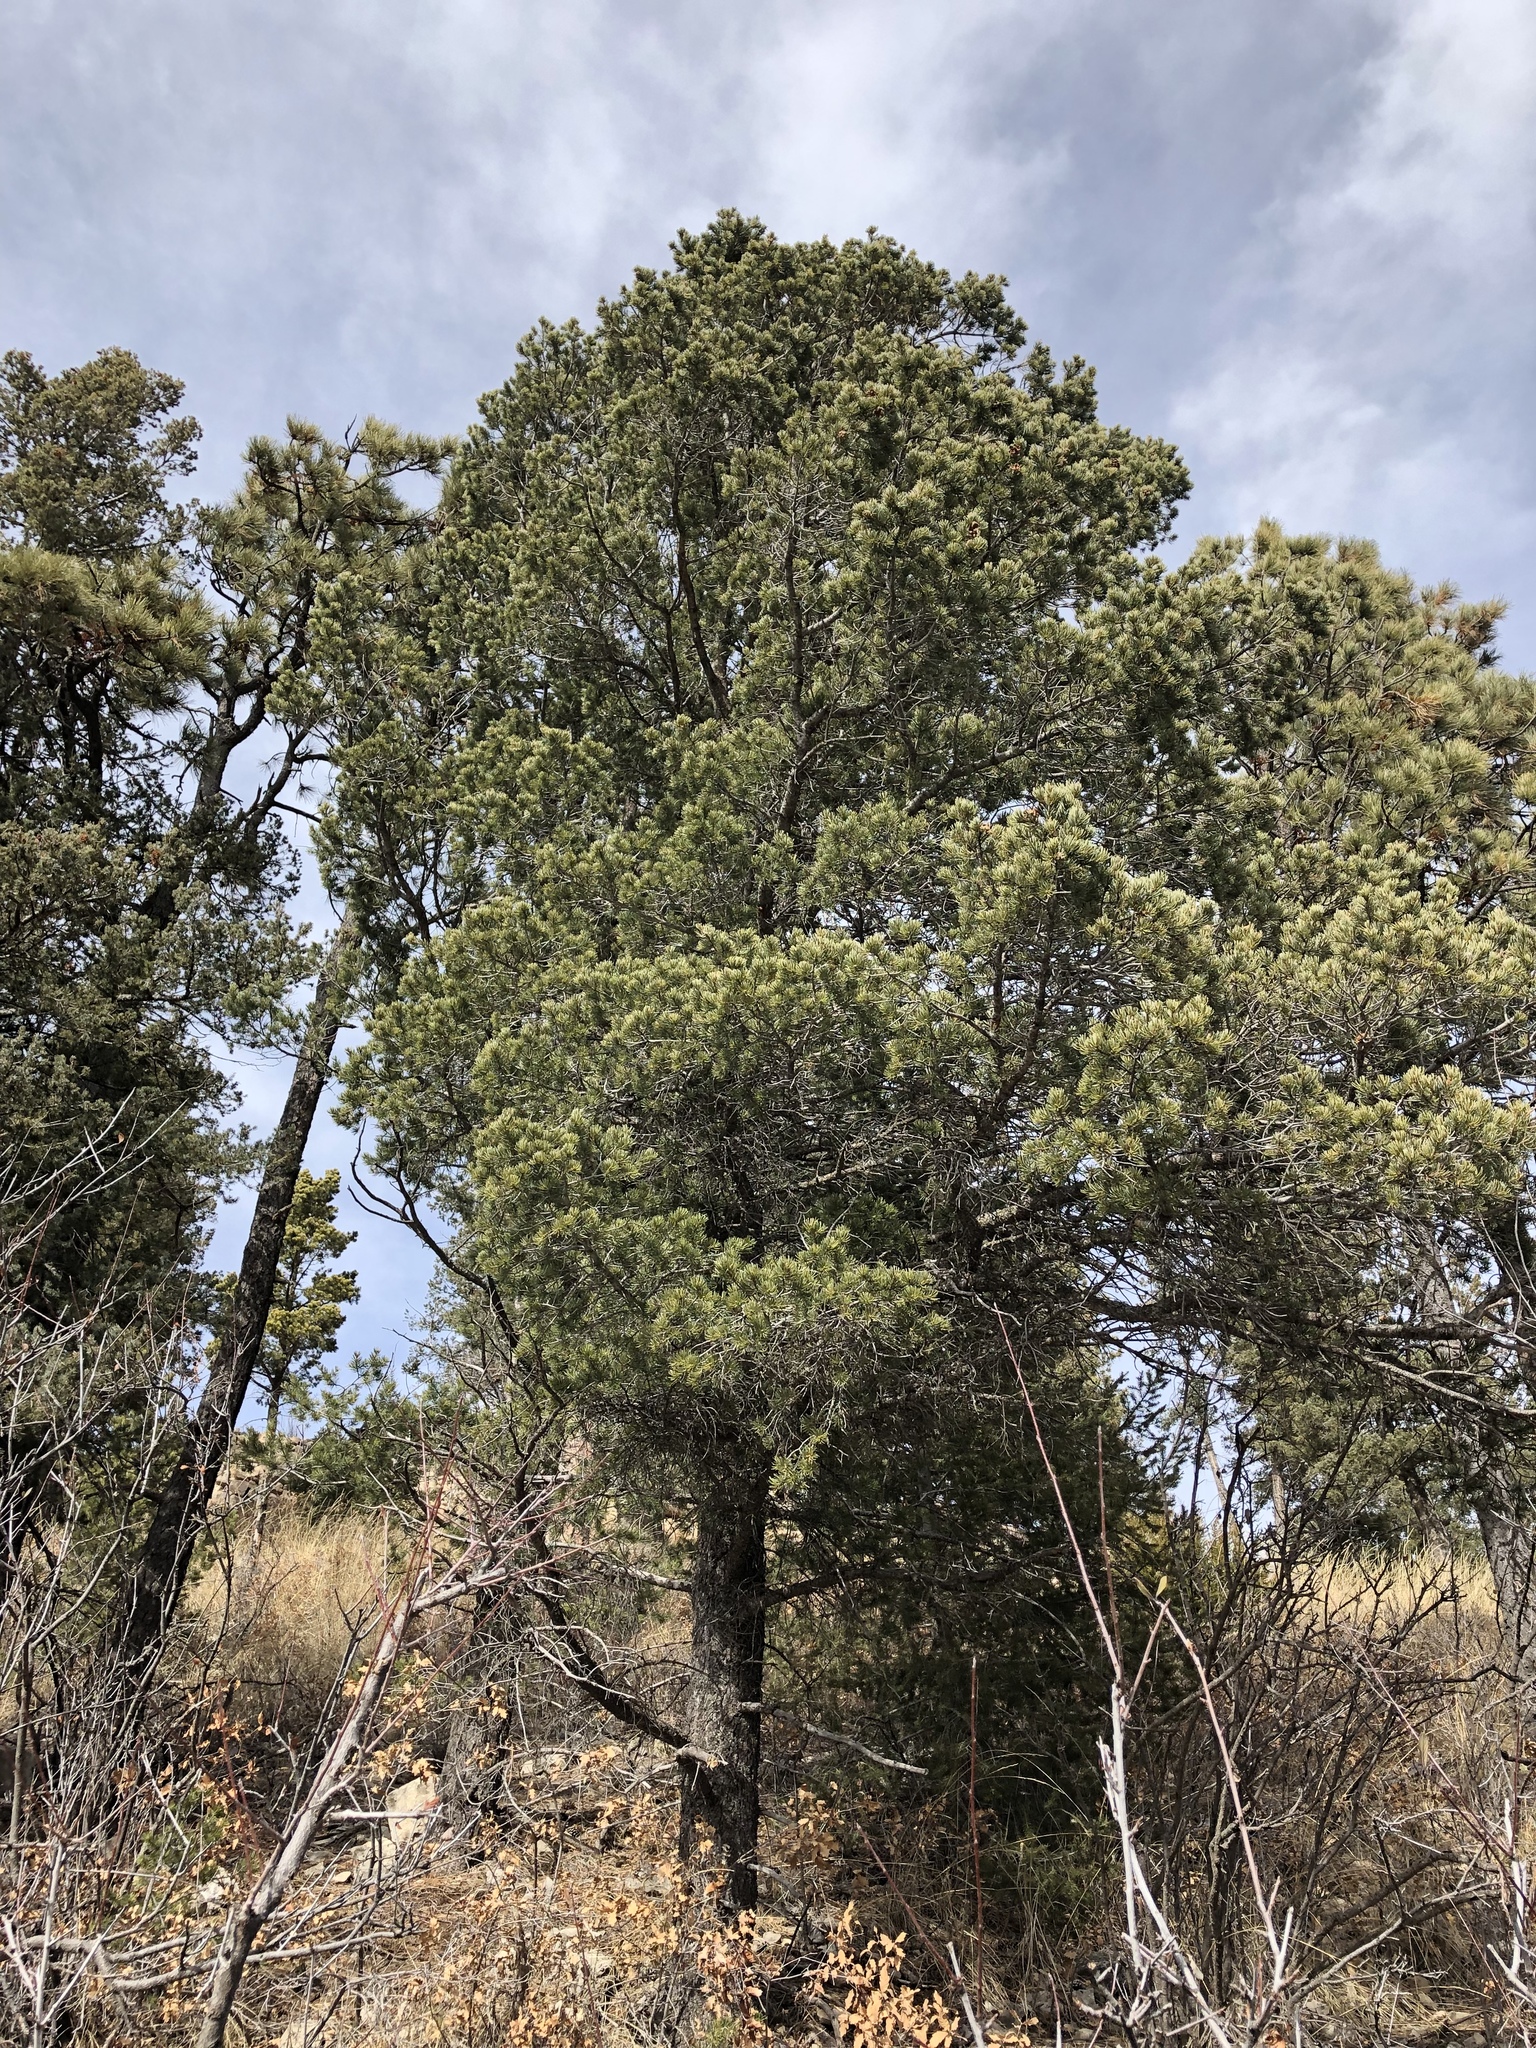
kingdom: Plantae
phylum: Tracheophyta
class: Pinopsida
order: Pinales
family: Pinaceae
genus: Pinus
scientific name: Pinus edulis
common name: Colorado pinyon
